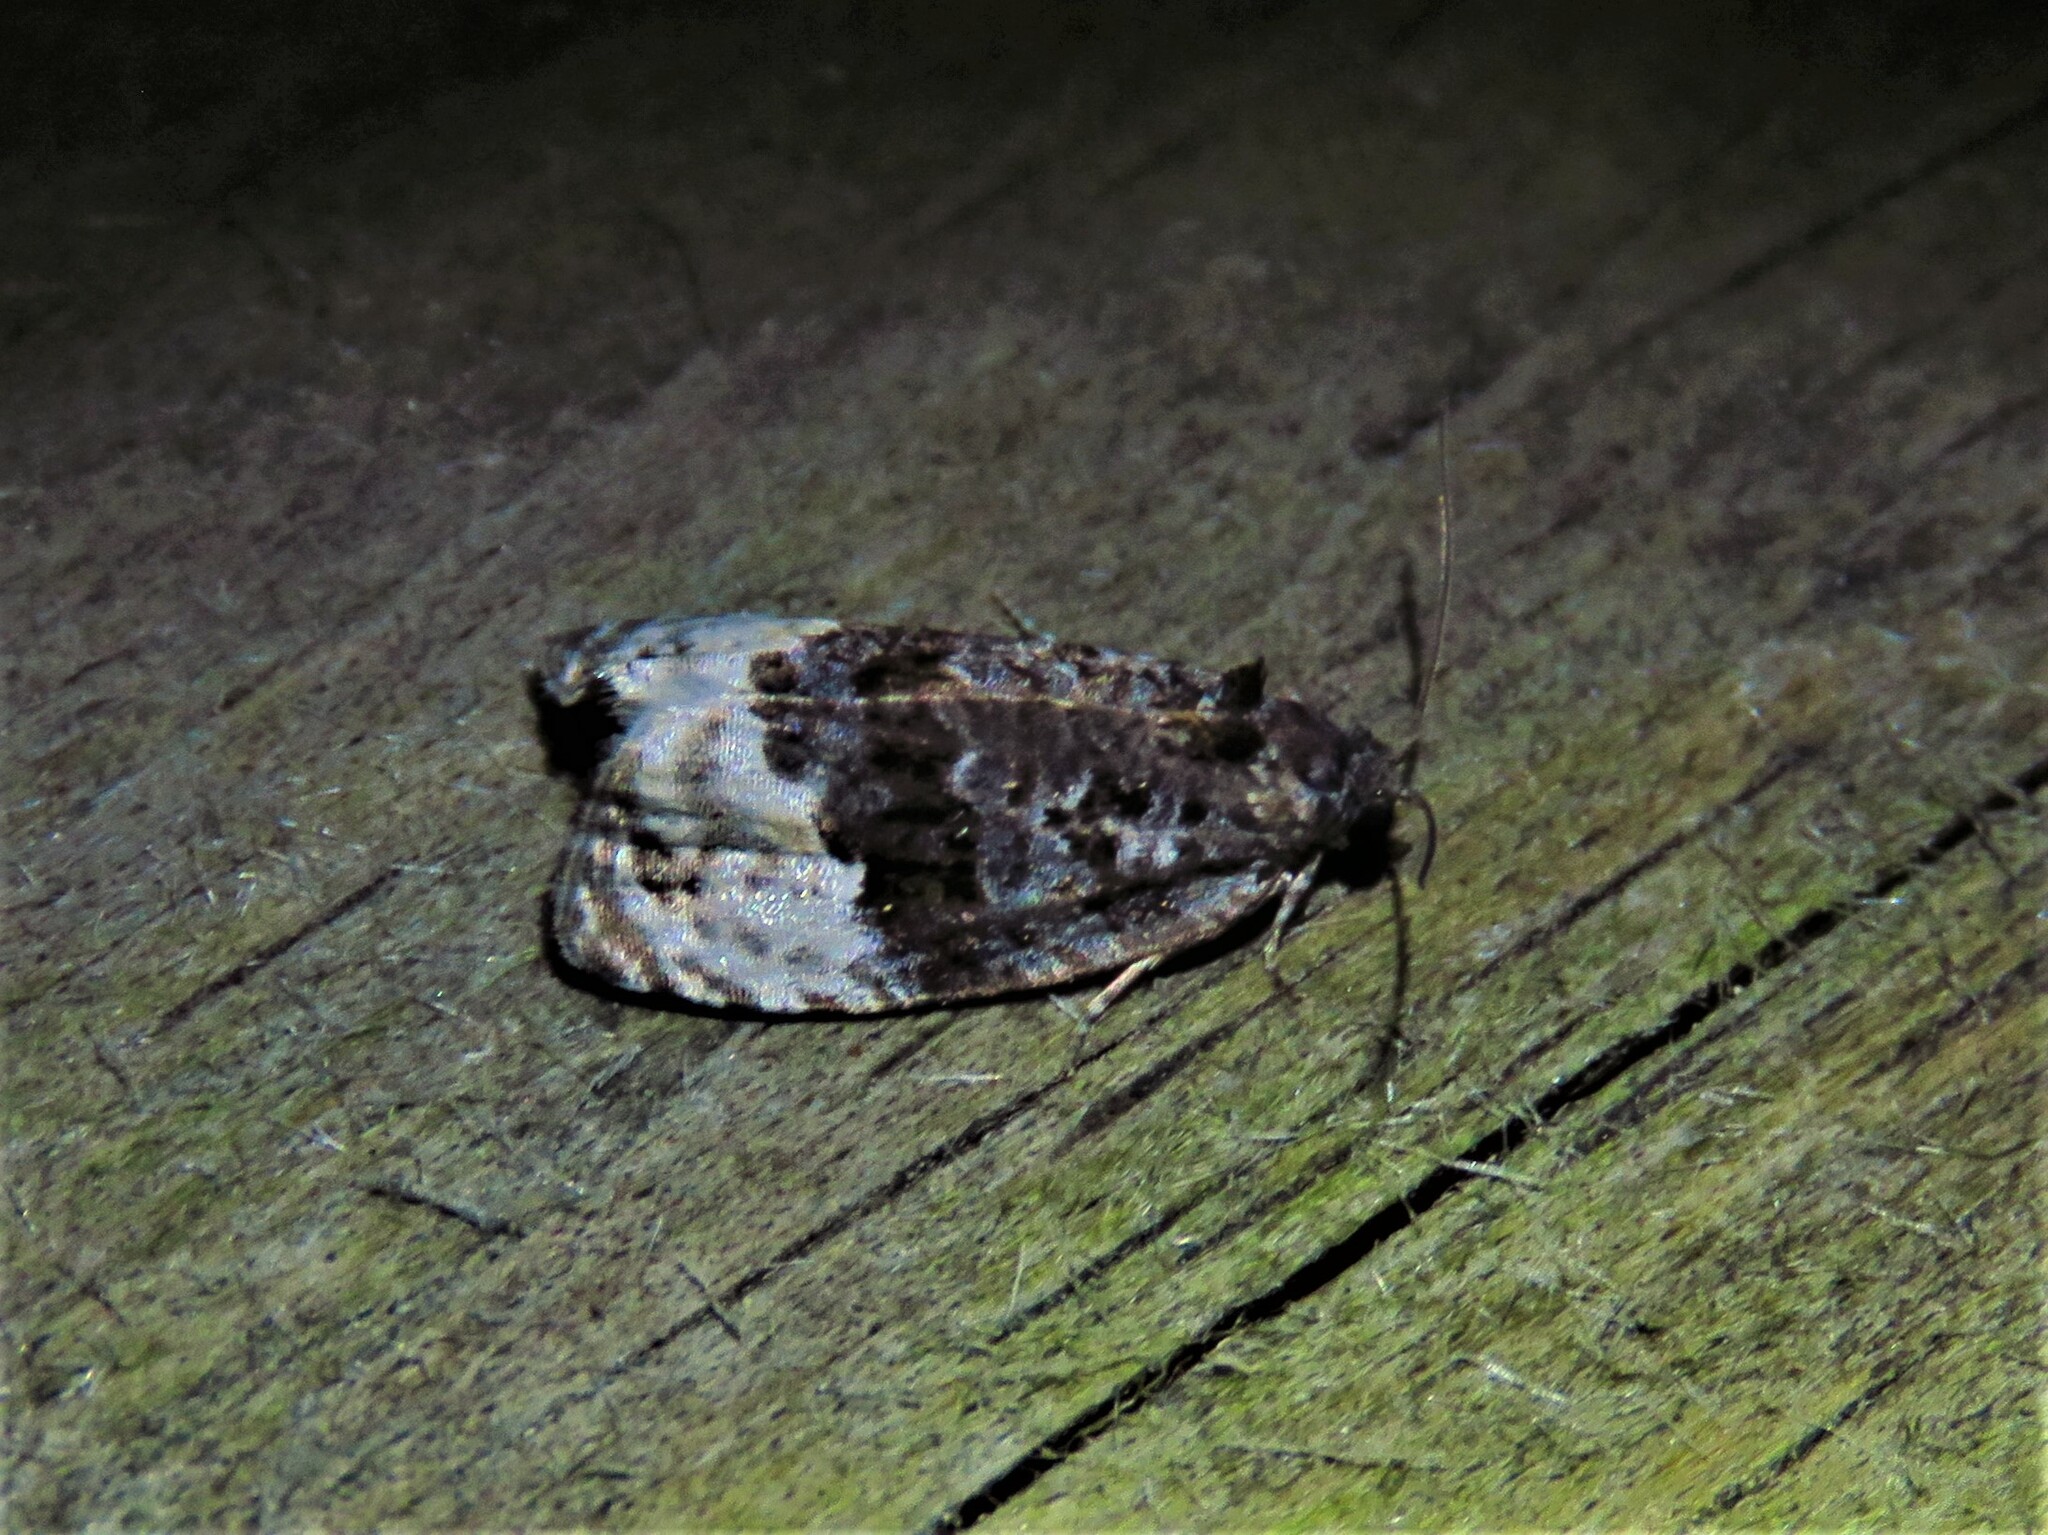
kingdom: Animalia
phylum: Arthropoda
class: Insecta
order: Lepidoptera
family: Tortricidae
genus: Apotomis
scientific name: Apotomis betuletana
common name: Birch marble
